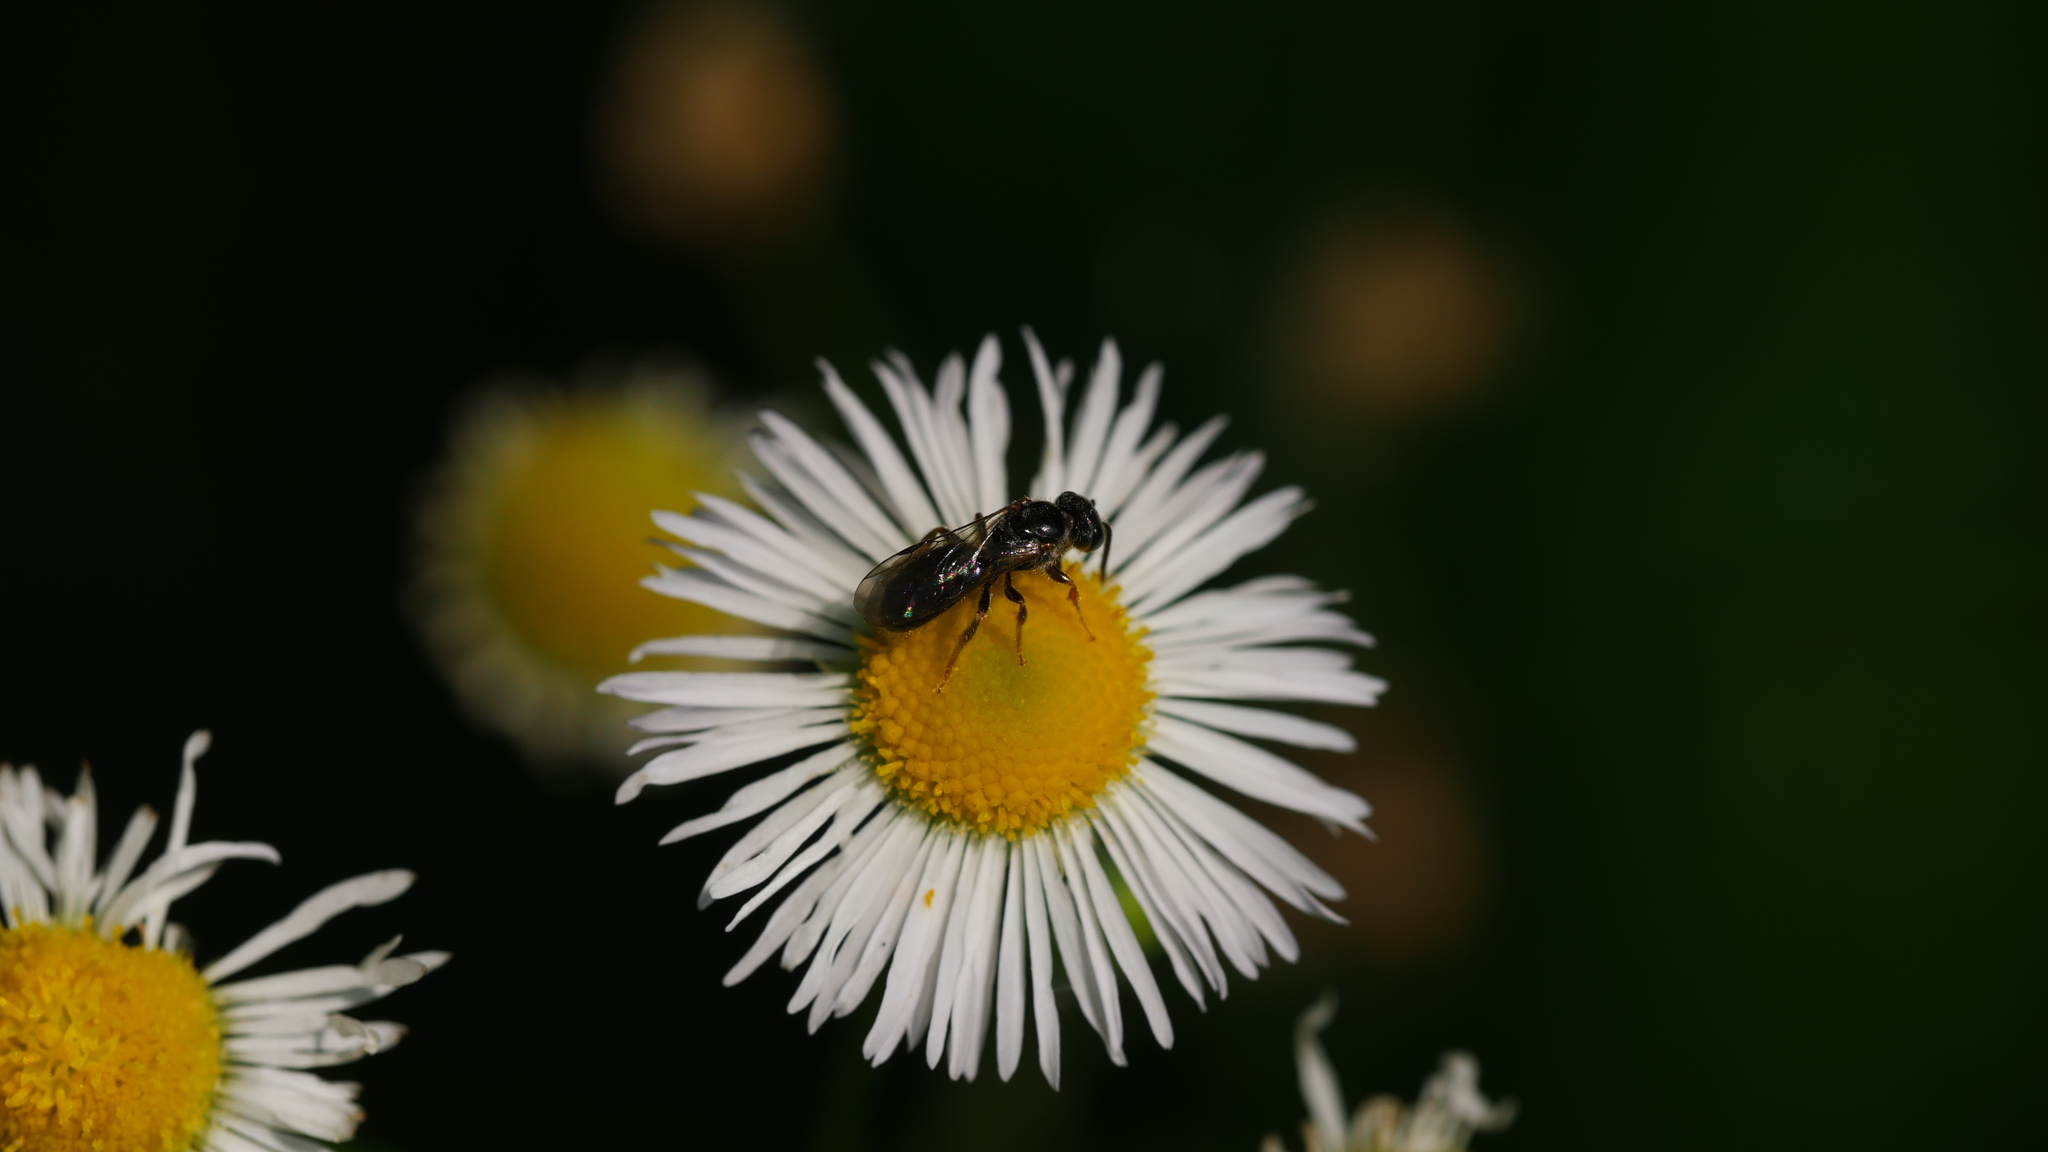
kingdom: Animalia
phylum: Arthropoda
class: Insecta
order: Hymenoptera
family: Halictidae
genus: Lasioglossum
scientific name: Lasioglossum
